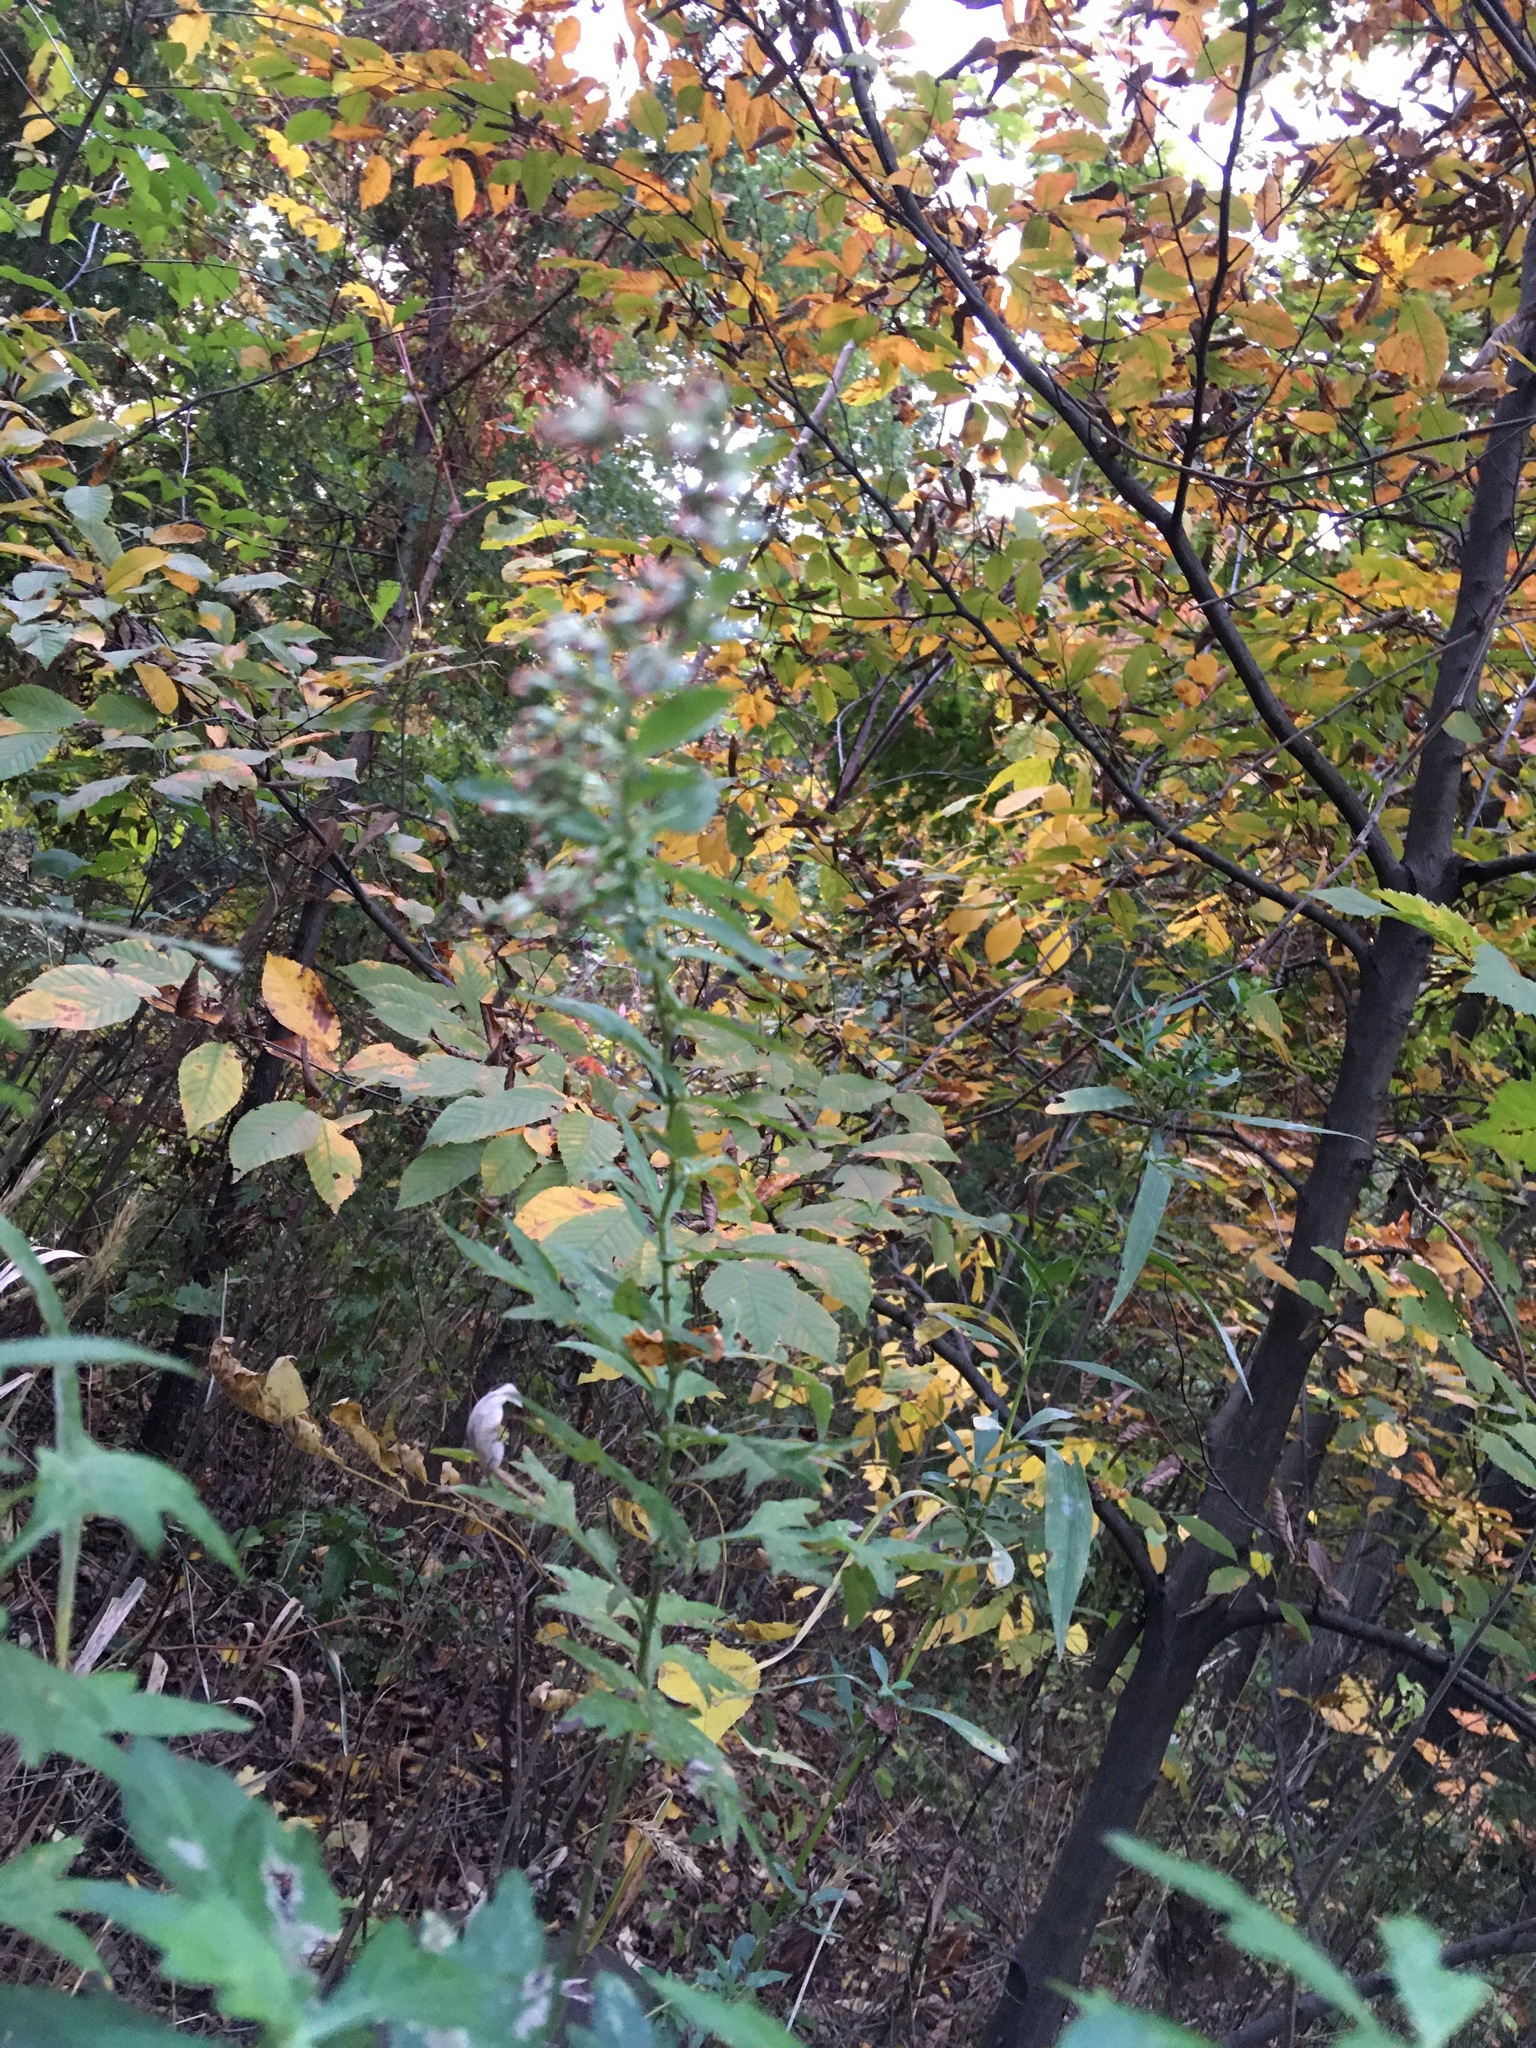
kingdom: Plantae
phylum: Tracheophyta
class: Magnoliopsida
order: Asterales
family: Asteraceae
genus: Artemisia
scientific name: Artemisia vulgaris
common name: Mugwort
